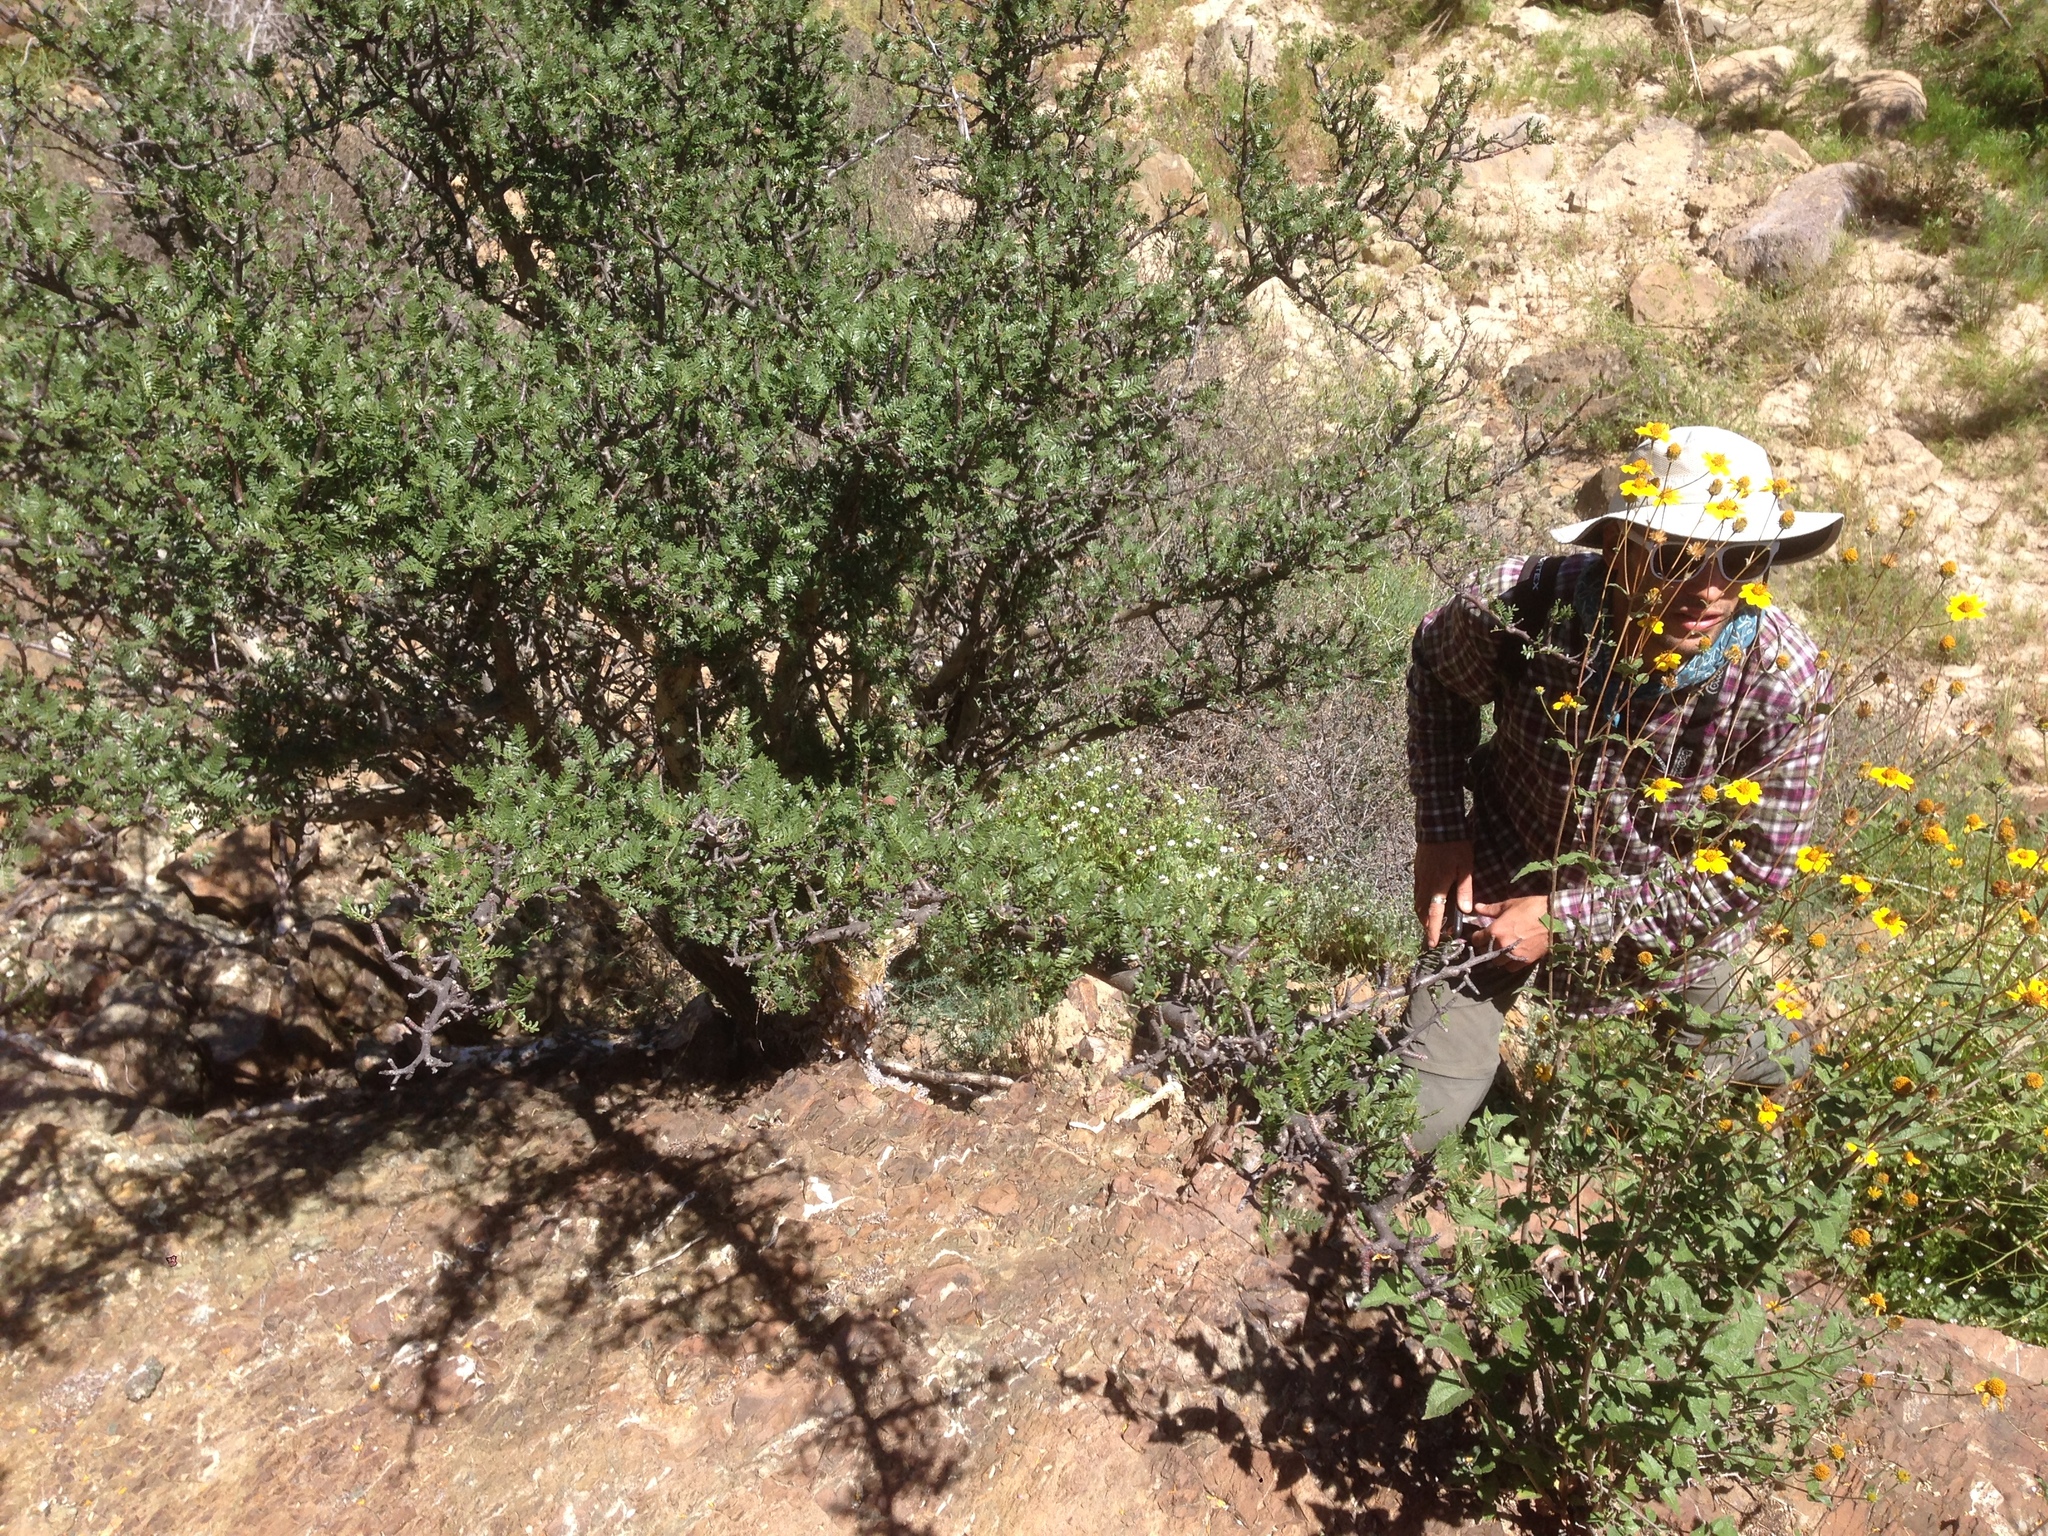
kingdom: Plantae
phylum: Tracheophyta
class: Magnoliopsida
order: Sapindales
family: Burseraceae
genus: Bursera
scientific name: Bursera microphylla
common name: Elephant tree
